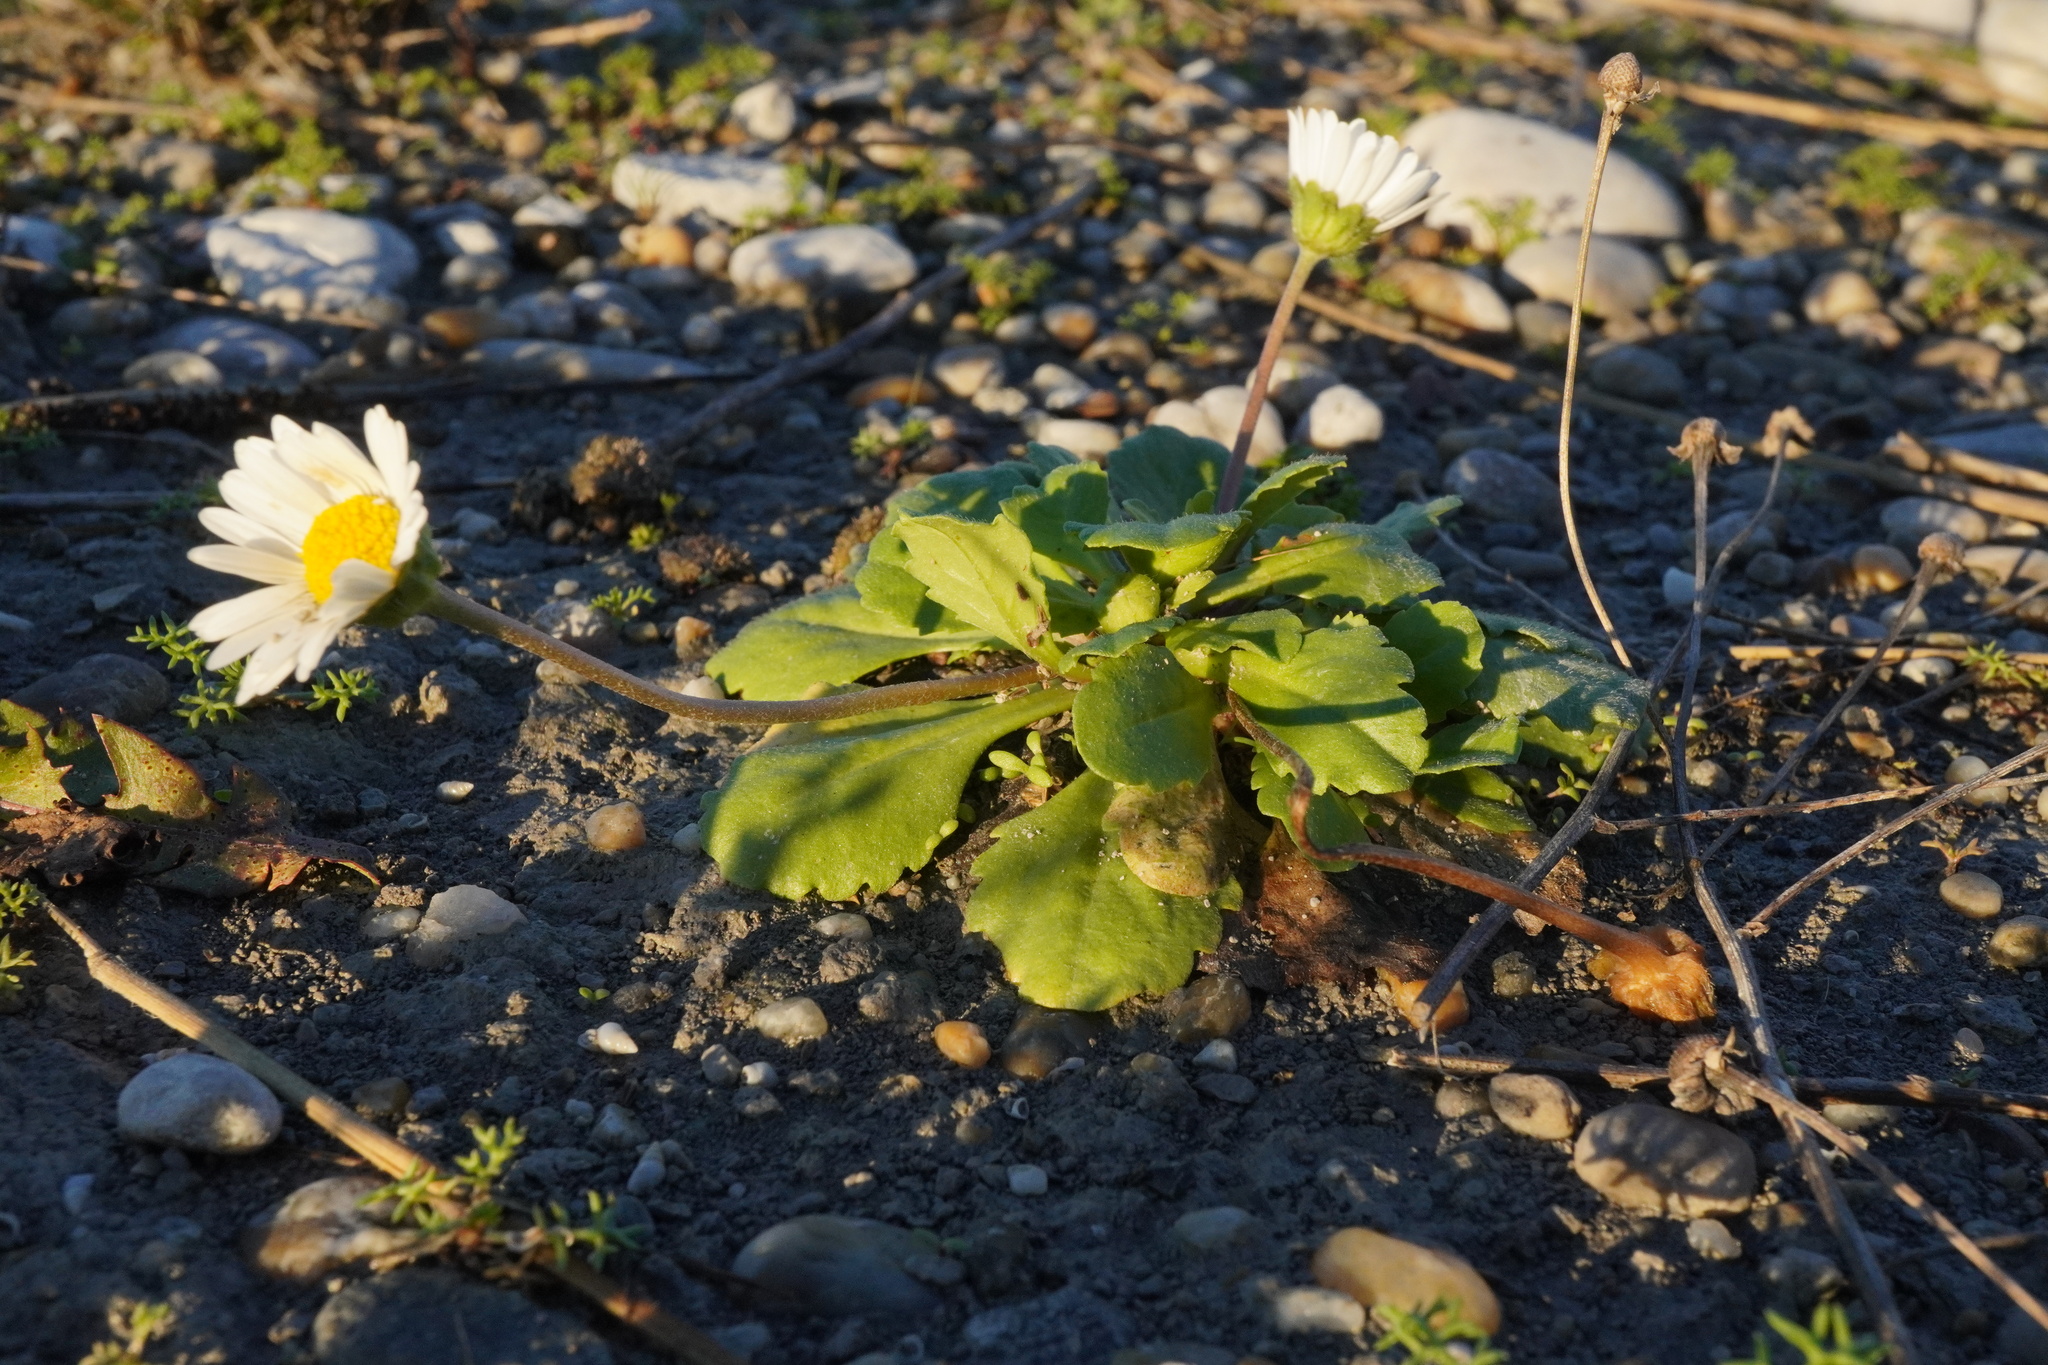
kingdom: Plantae
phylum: Tracheophyta
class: Magnoliopsida
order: Asterales
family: Asteraceae
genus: Bellis
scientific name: Bellis perennis
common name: Lawndaisy
